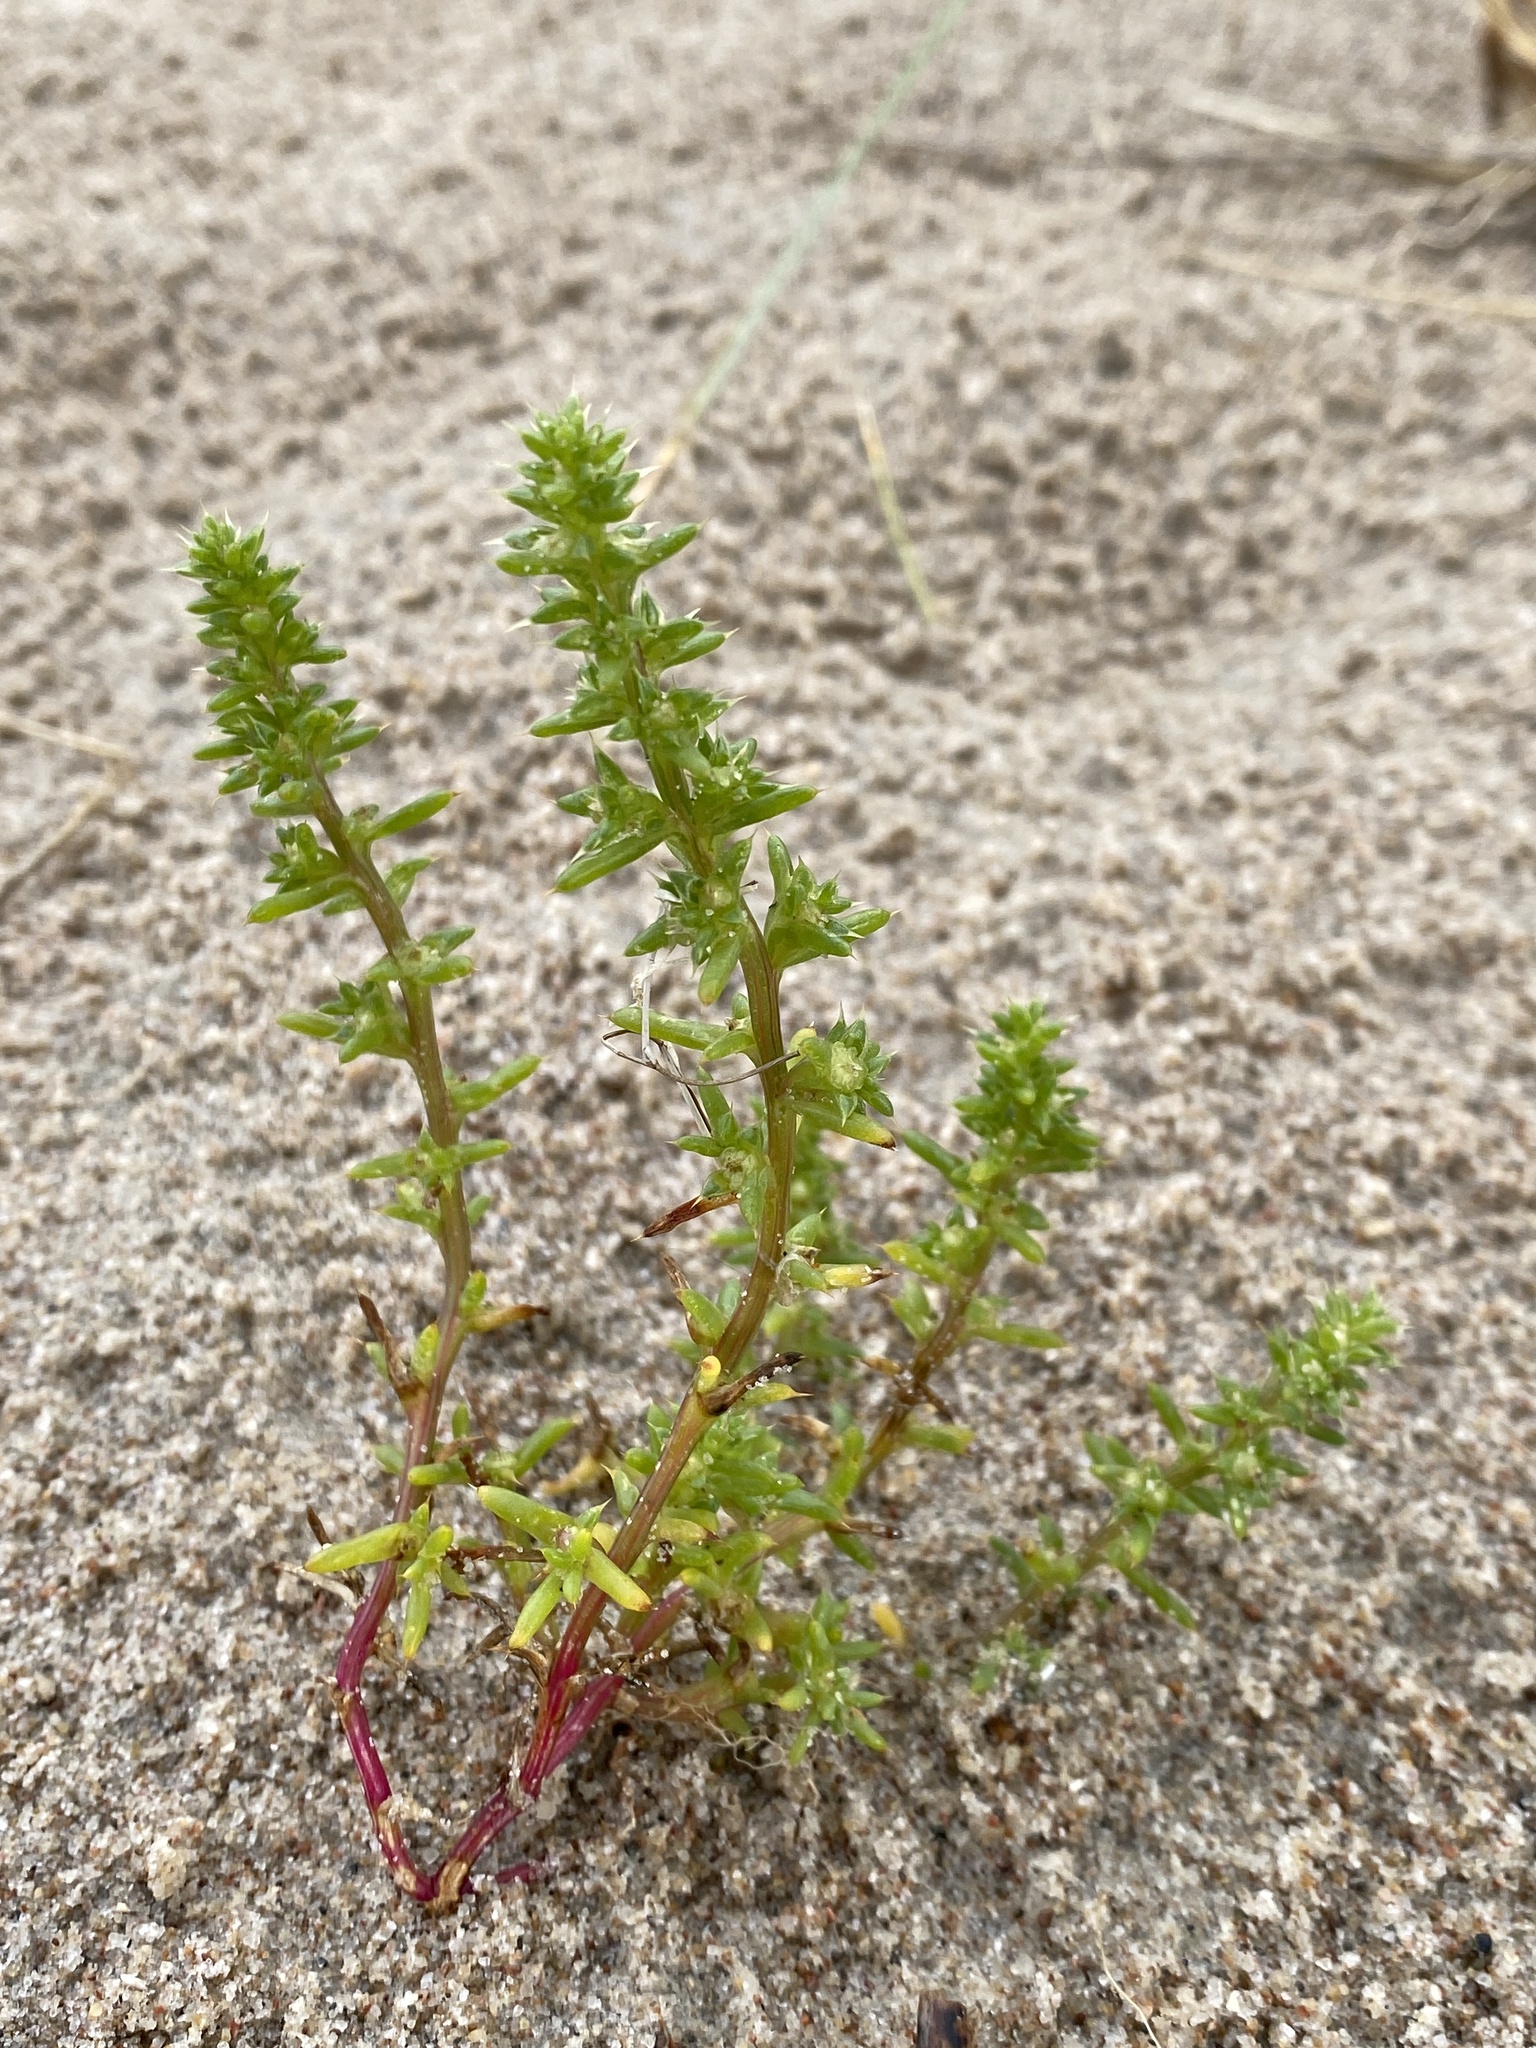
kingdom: Plantae
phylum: Tracheophyta
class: Magnoliopsida
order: Caryophyllales
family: Amaranthaceae
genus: Salsola
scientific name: Salsola kali
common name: Saltwort
